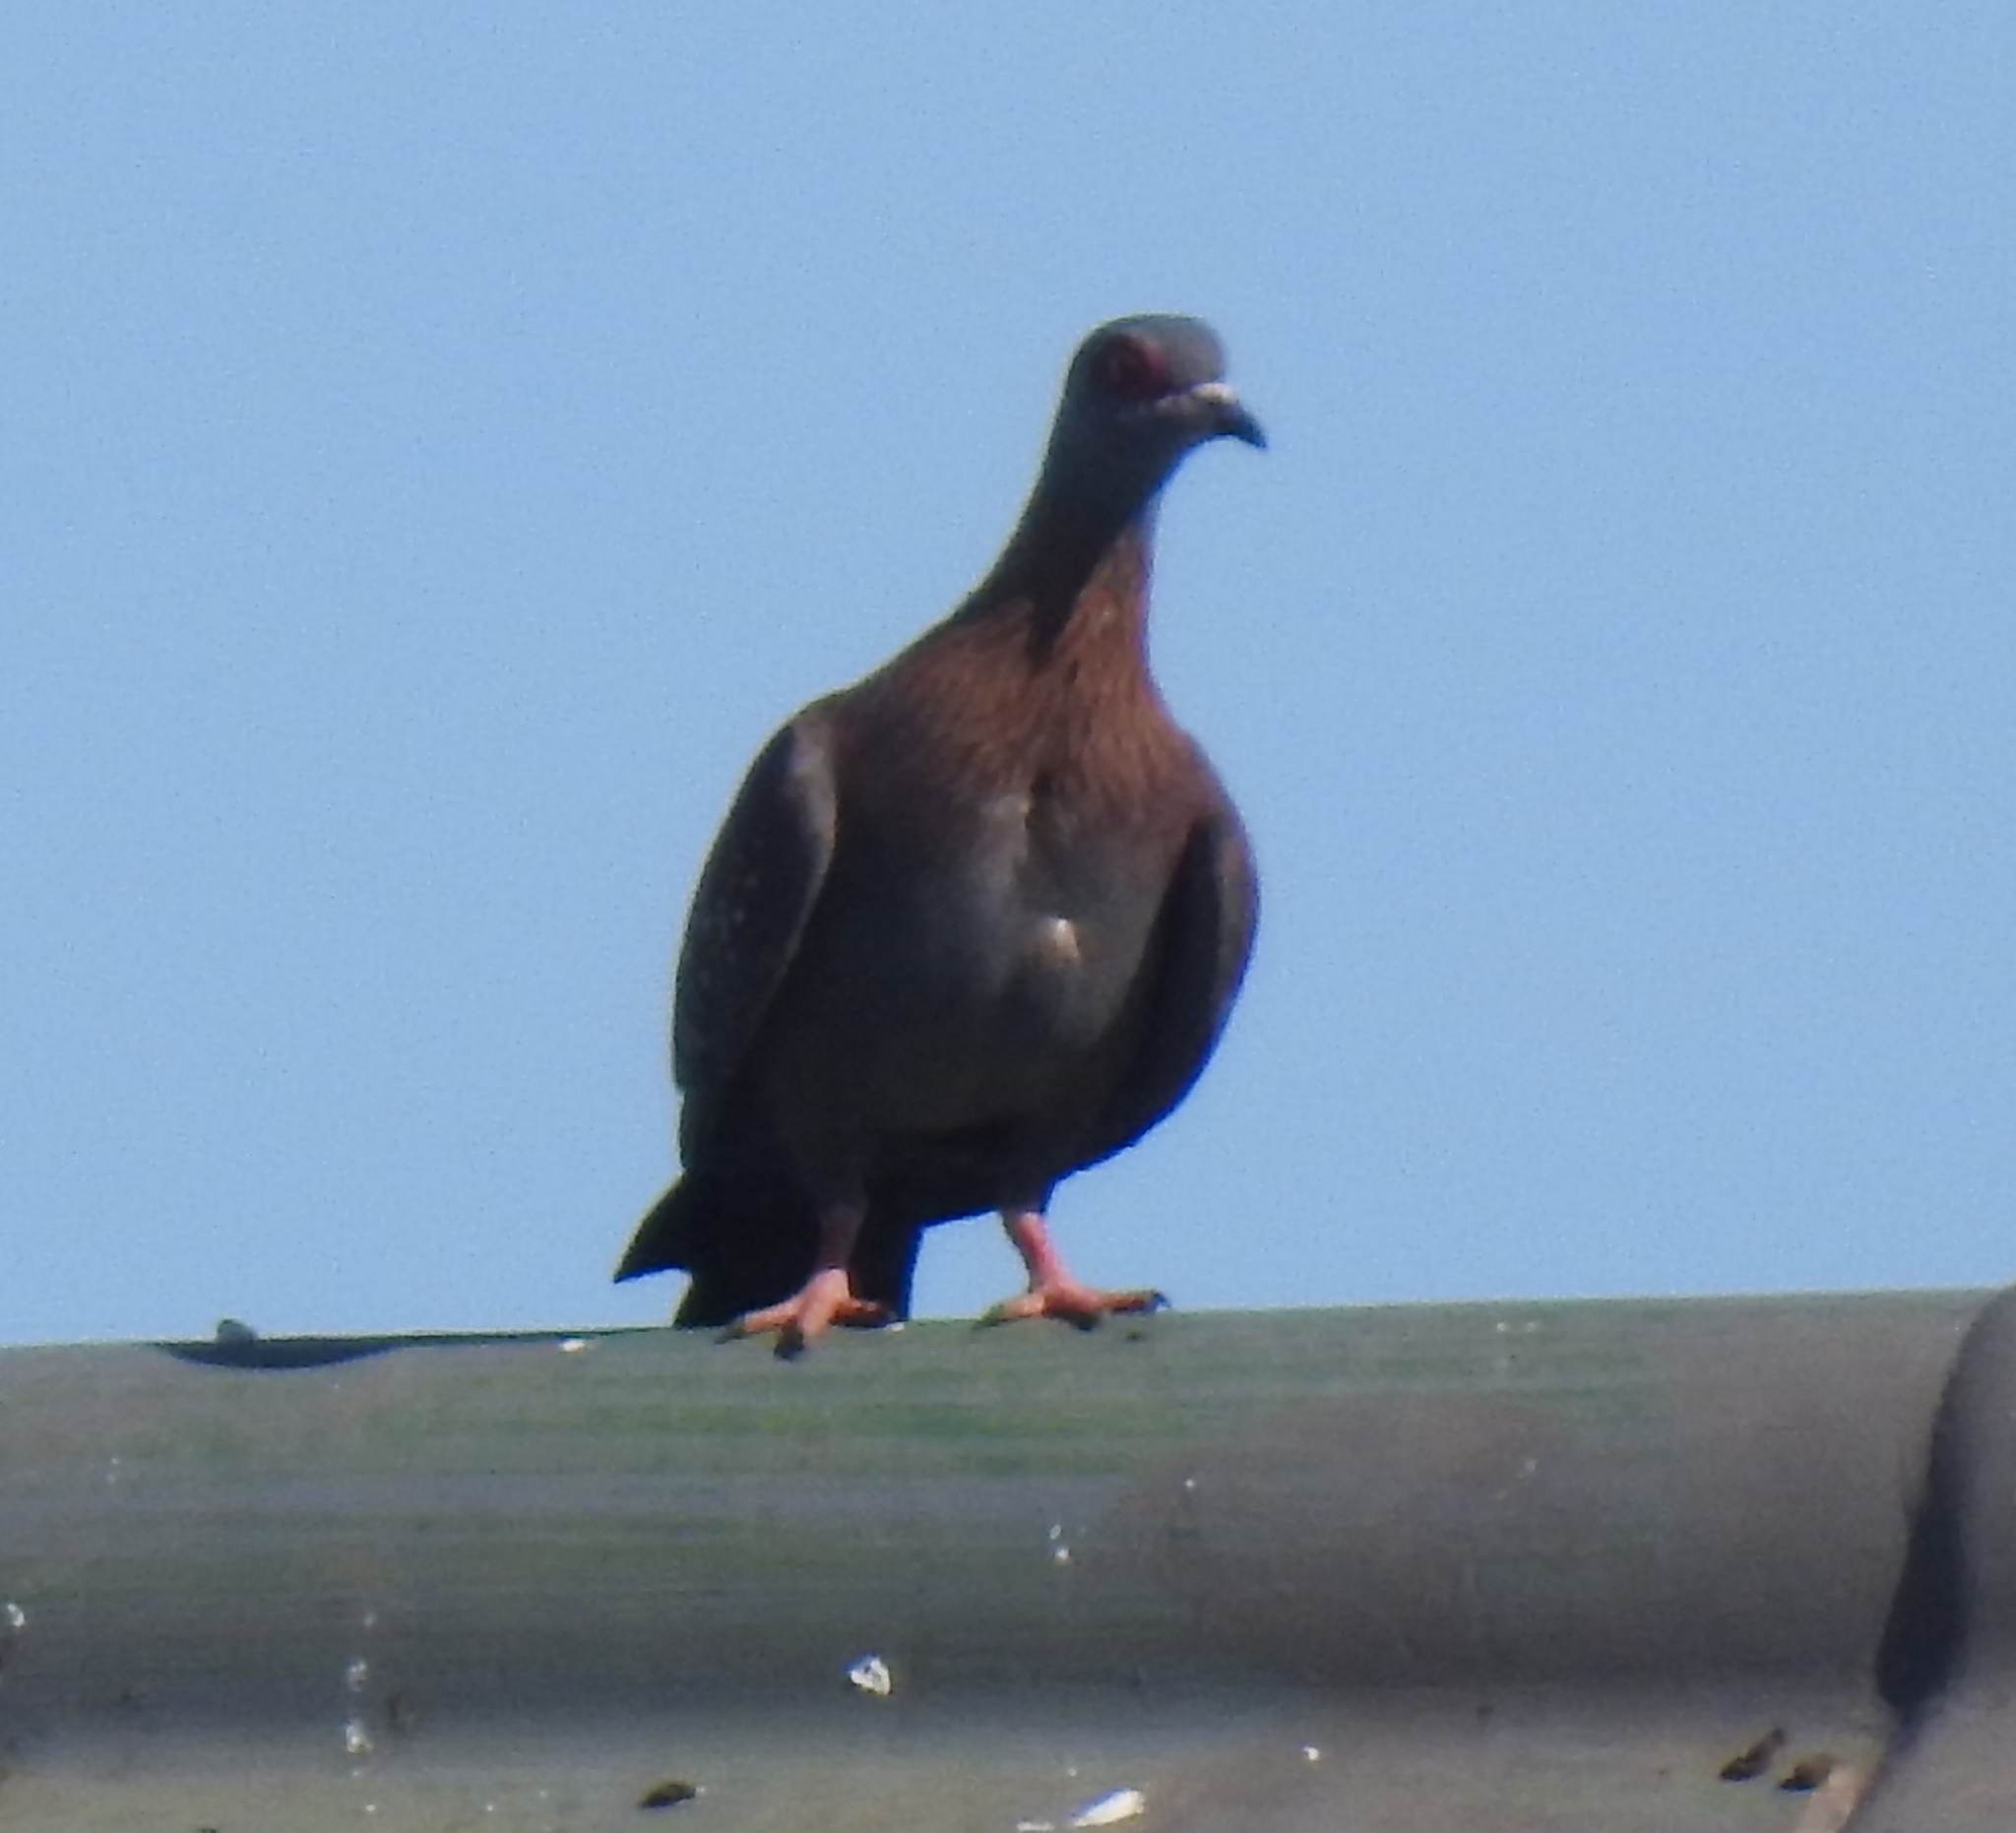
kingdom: Animalia
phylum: Chordata
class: Aves
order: Columbiformes
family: Columbidae
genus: Columba
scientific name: Columba guinea
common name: Speckled pigeon
